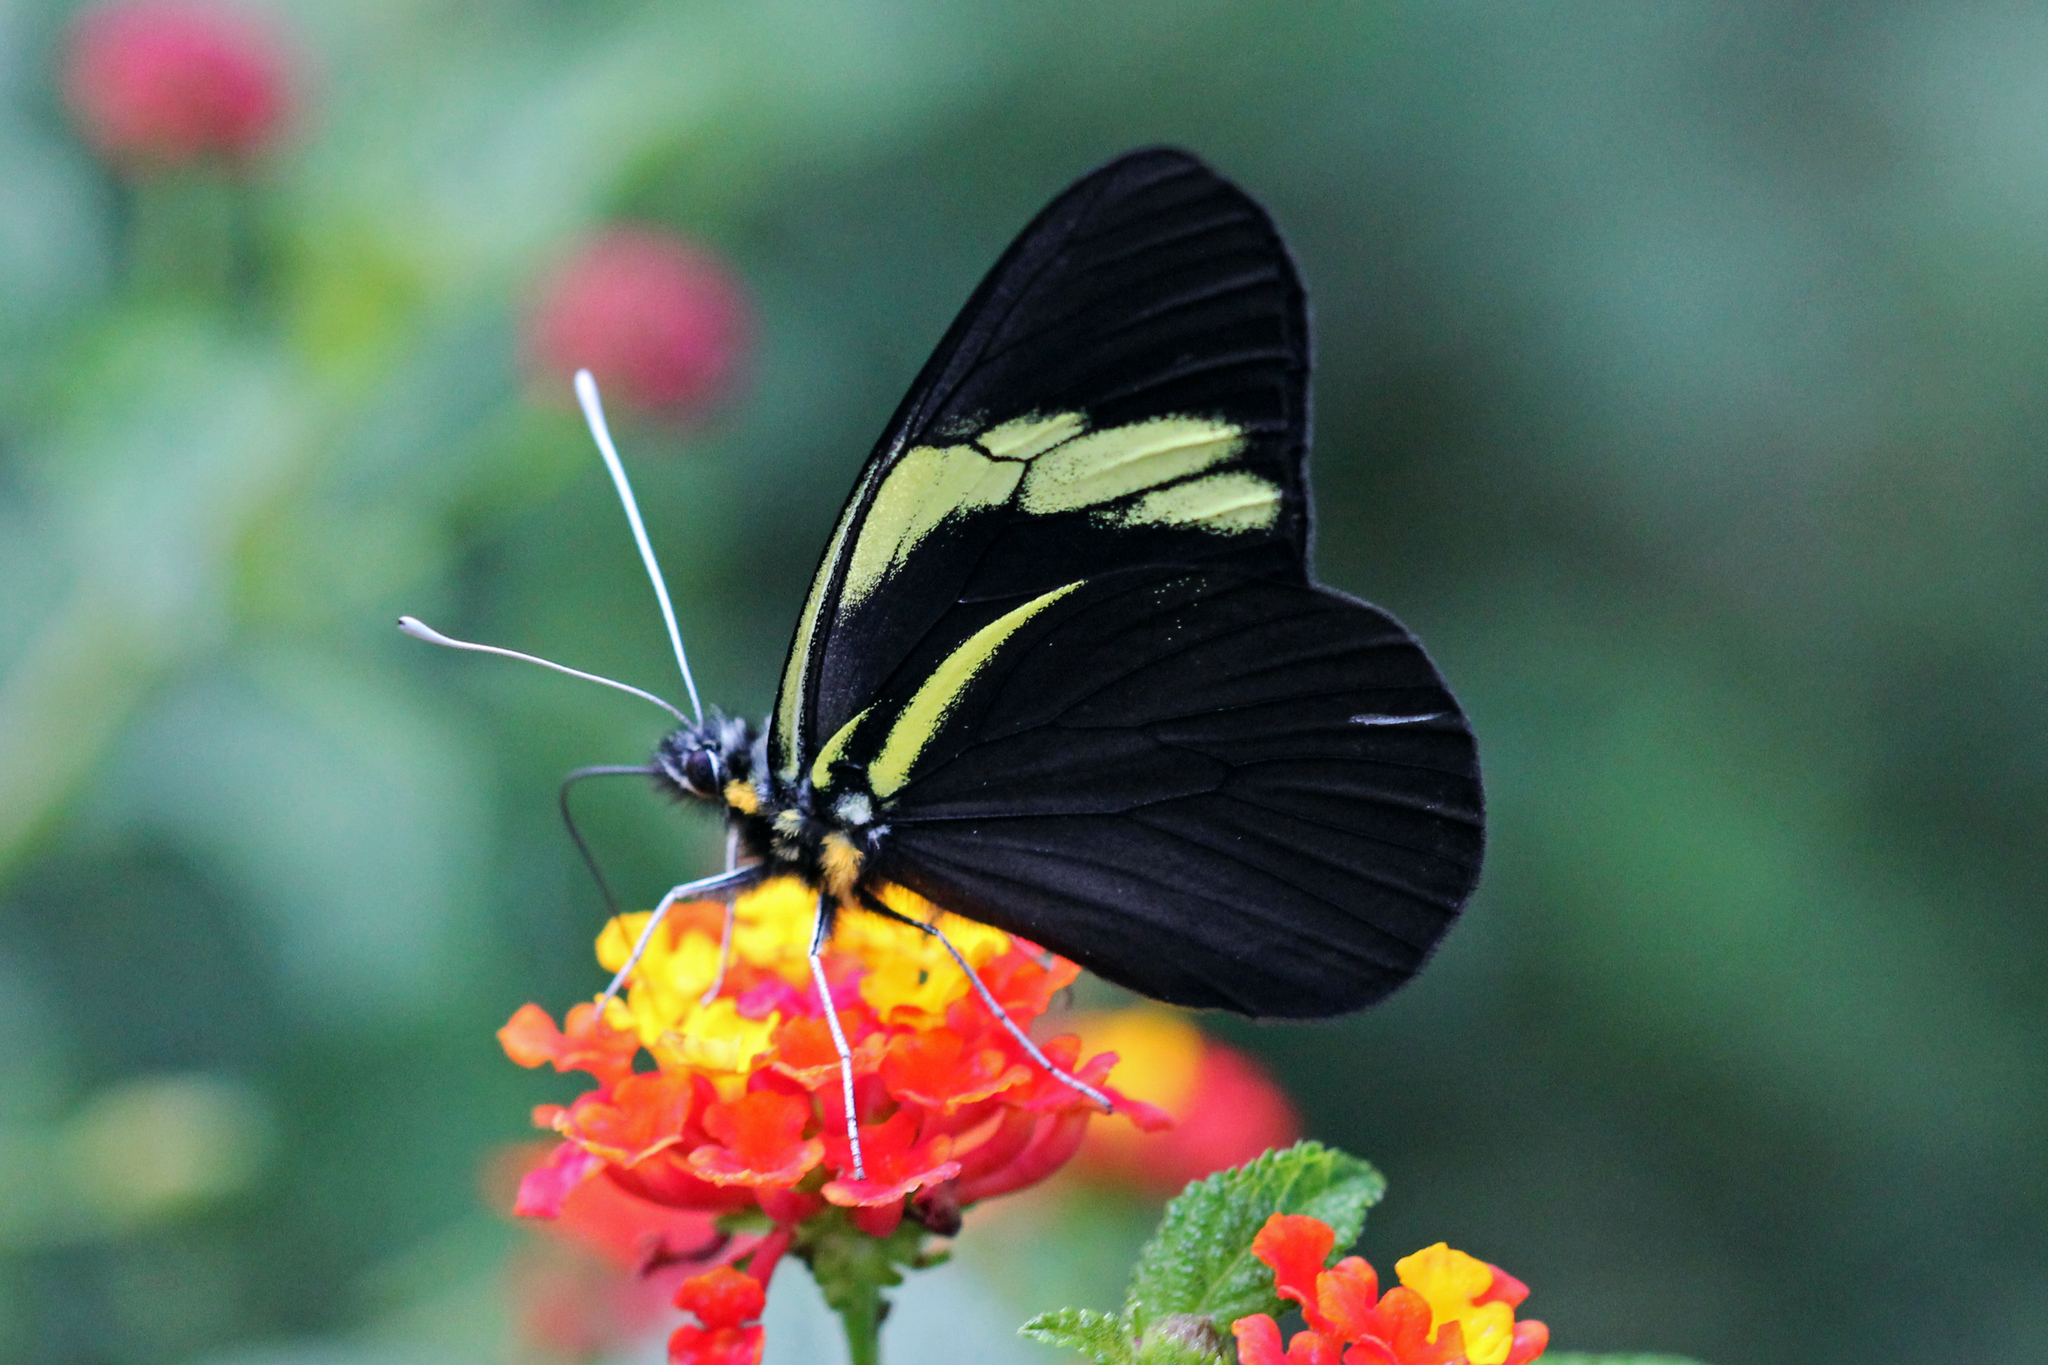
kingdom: Animalia
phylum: Arthropoda
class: Insecta
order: Lepidoptera
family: Pieridae
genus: Pereute
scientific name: Pereute charops
